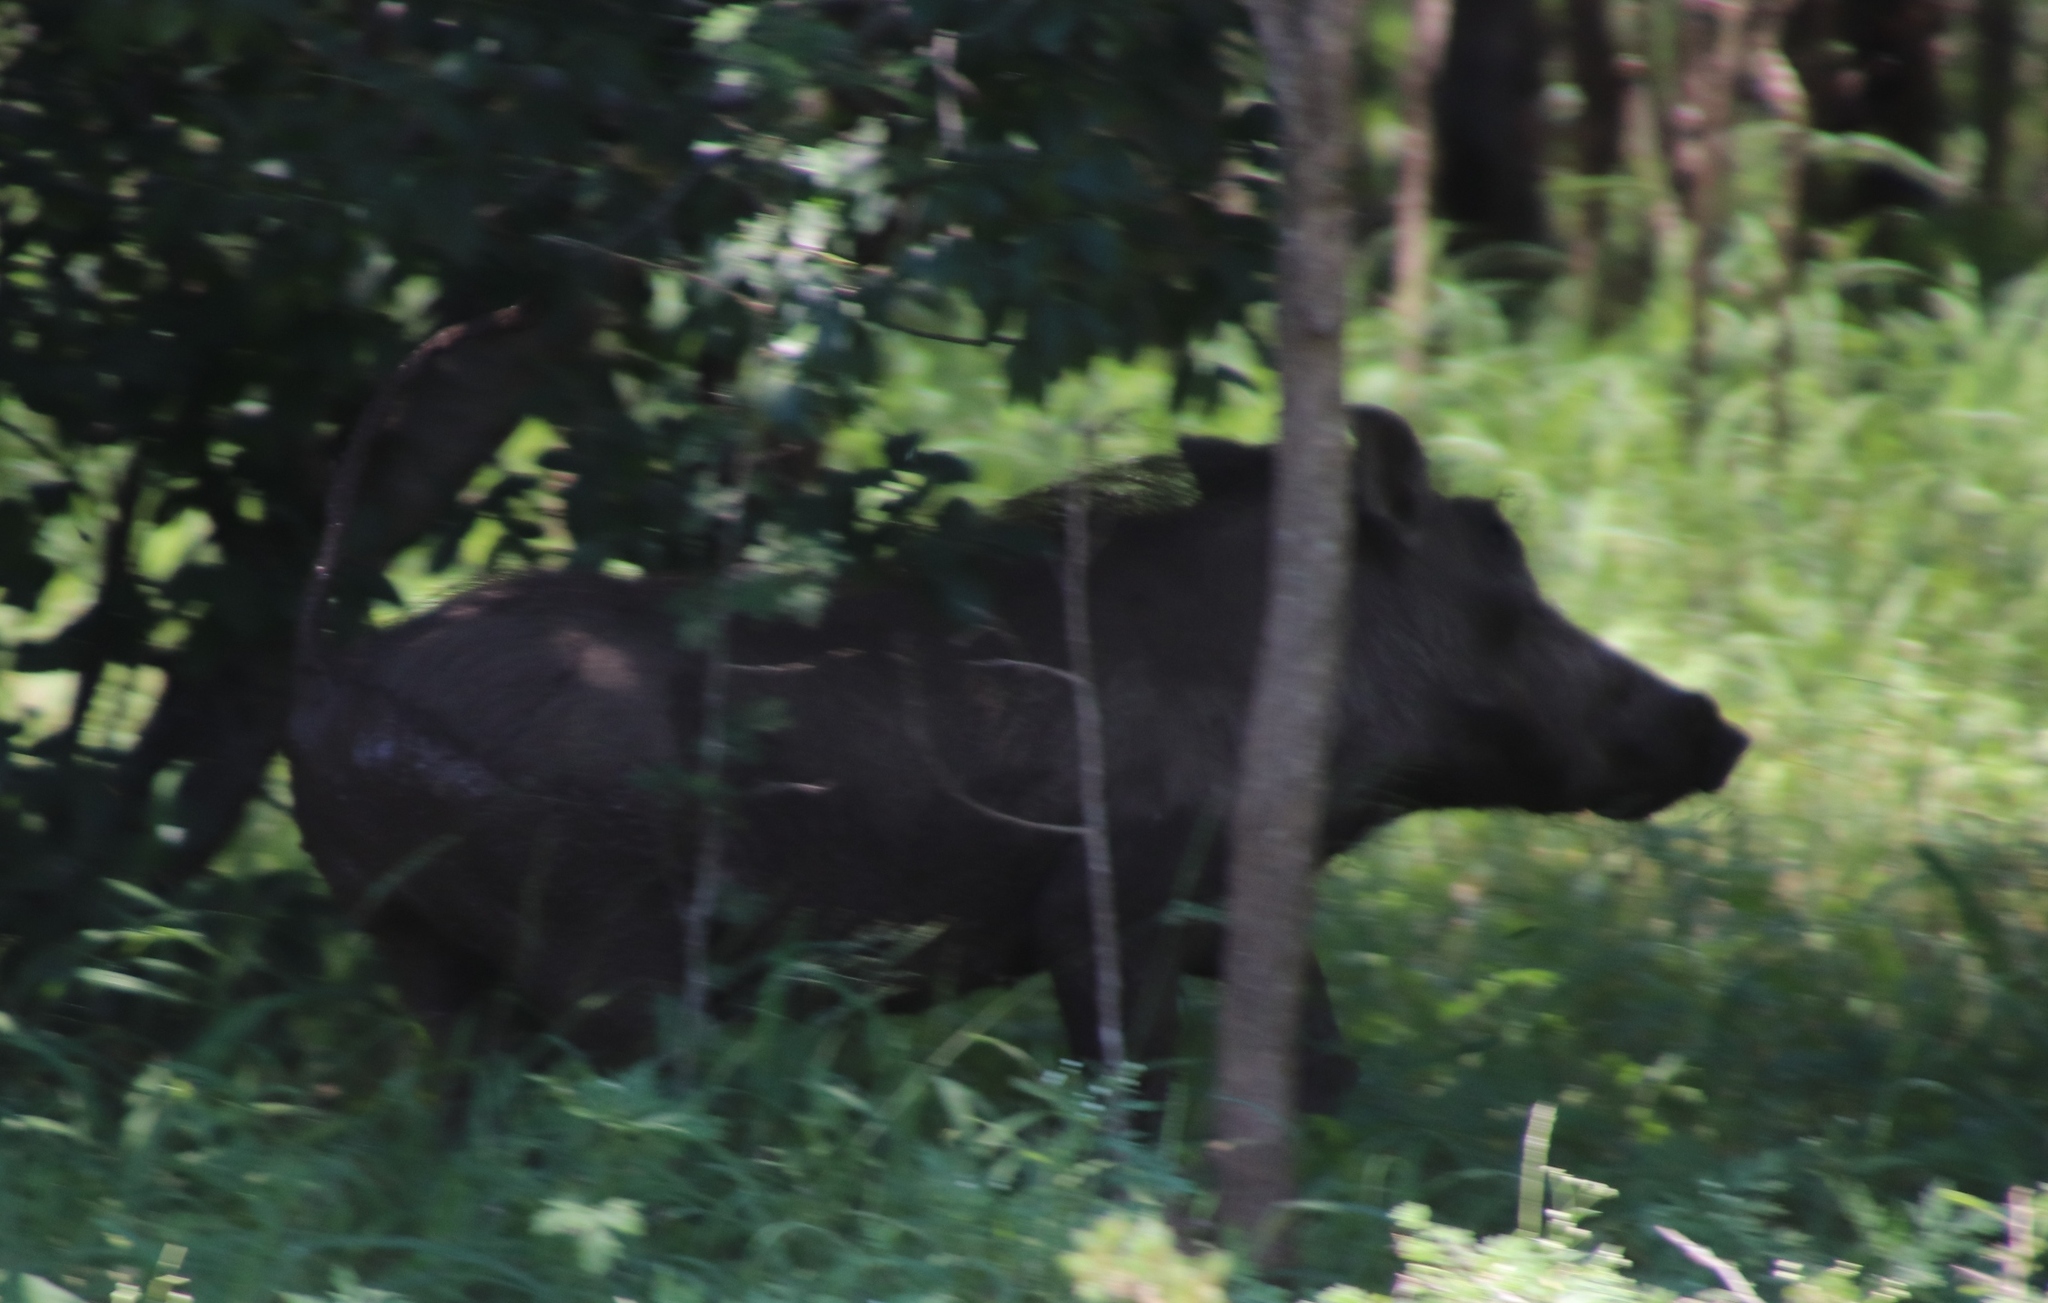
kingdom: Animalia
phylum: Chordata
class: Mammalia
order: Artiodactyla
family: Suidae
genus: Phacochoerus
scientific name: Phacochoerus africanus
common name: Common warthog
